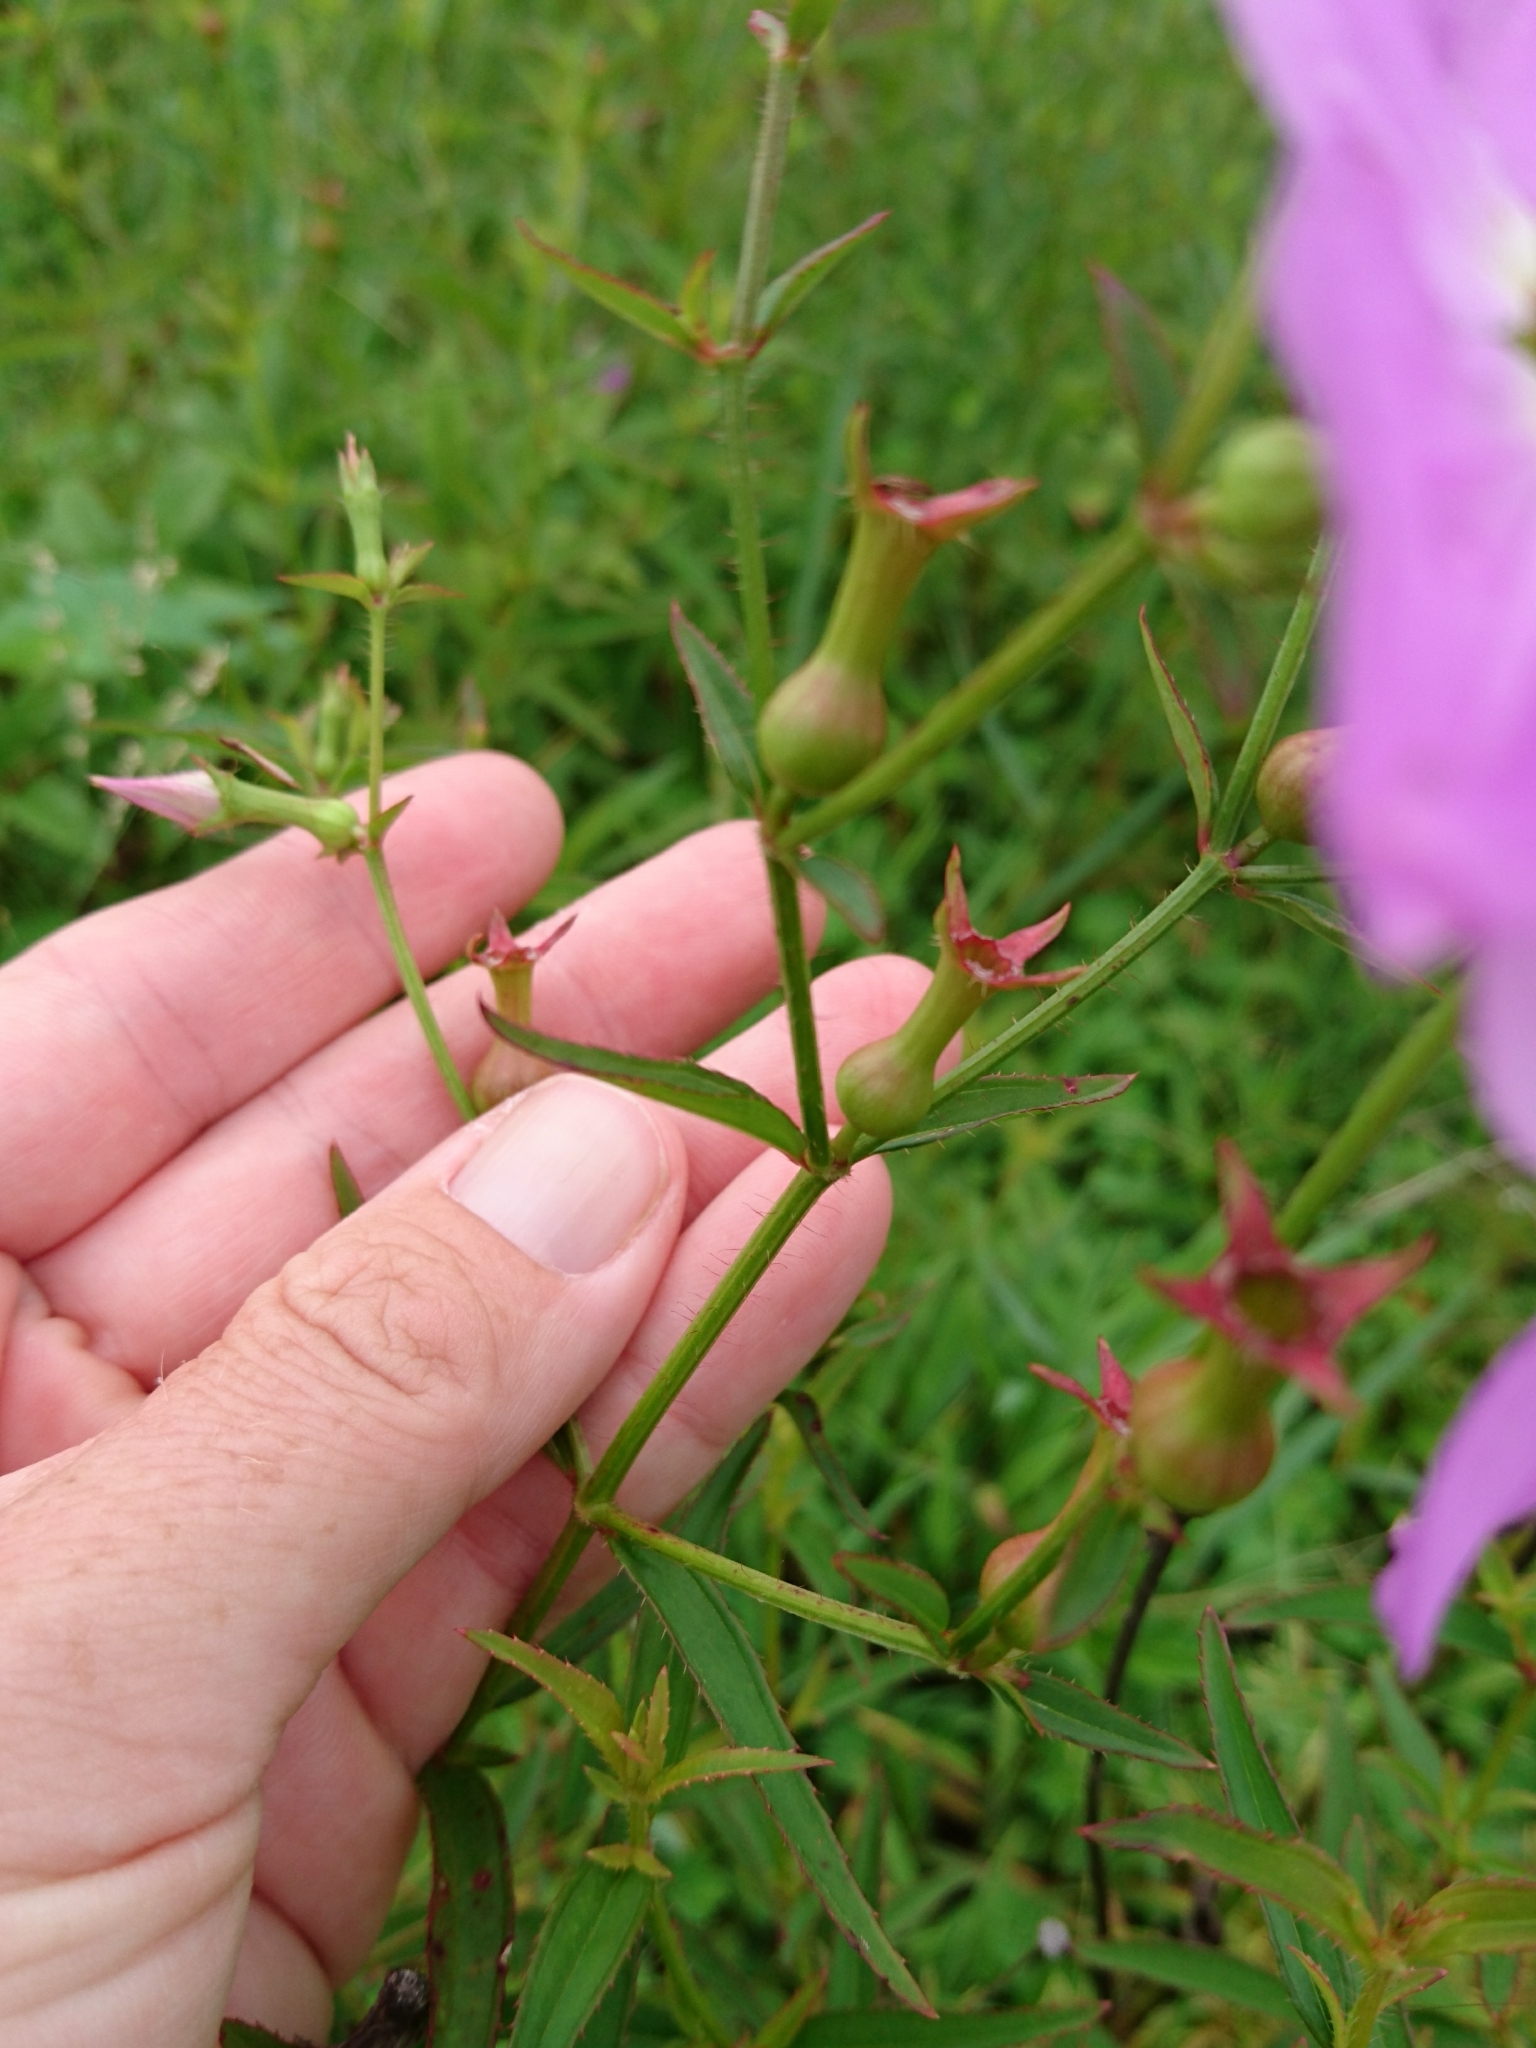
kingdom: Plantae
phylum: Tracheophyta
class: Magnoliopsida
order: Myrtales
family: Melastomataceae
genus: Rhexia
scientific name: Rhexia nashii
